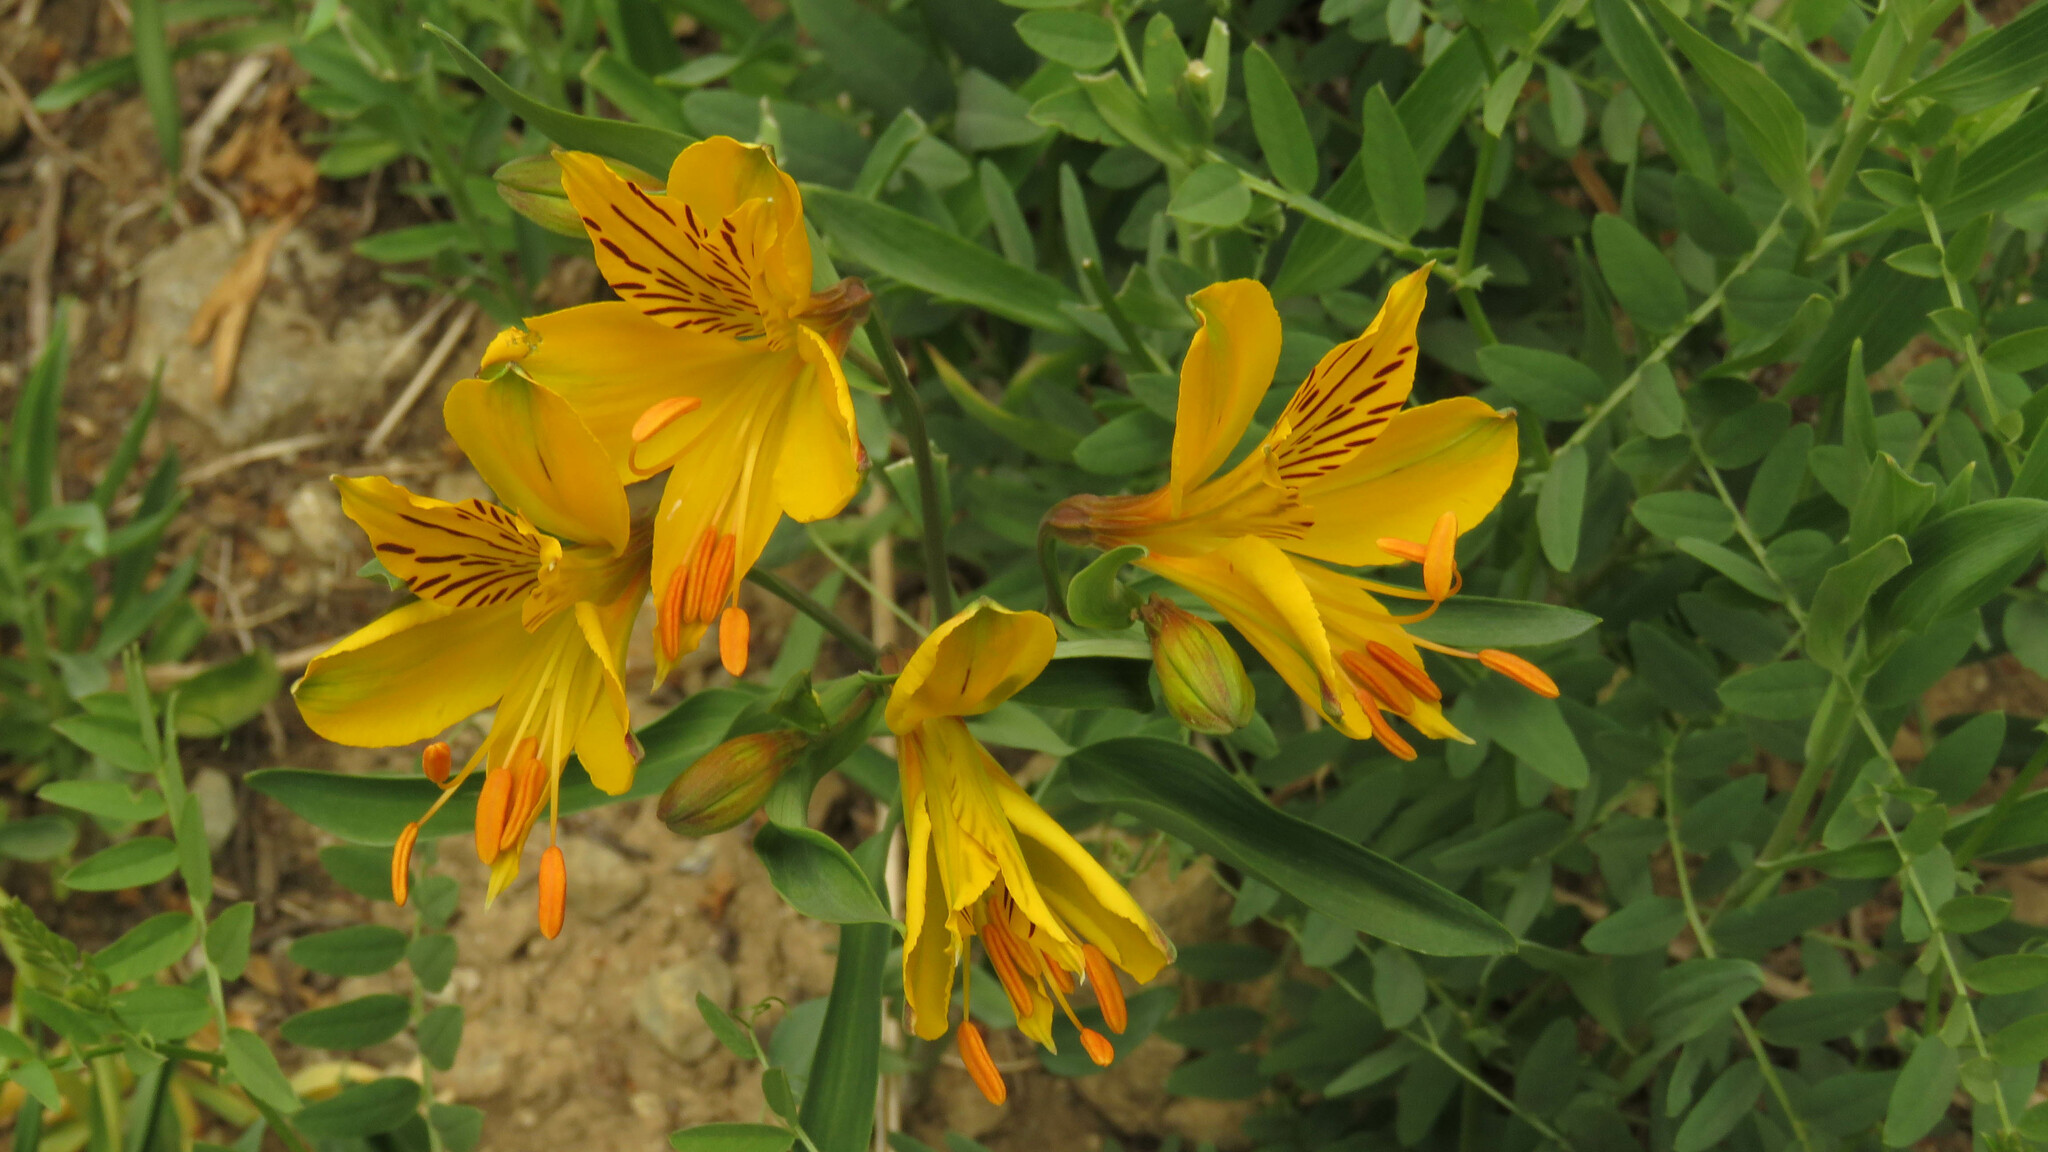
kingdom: Plantae
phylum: Tracheophyta
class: Liliopsida
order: Liliales
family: Alstroemeriaceae
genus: Alstroemeria
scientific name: Alstroemeria aurea
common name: Peruvian lily
